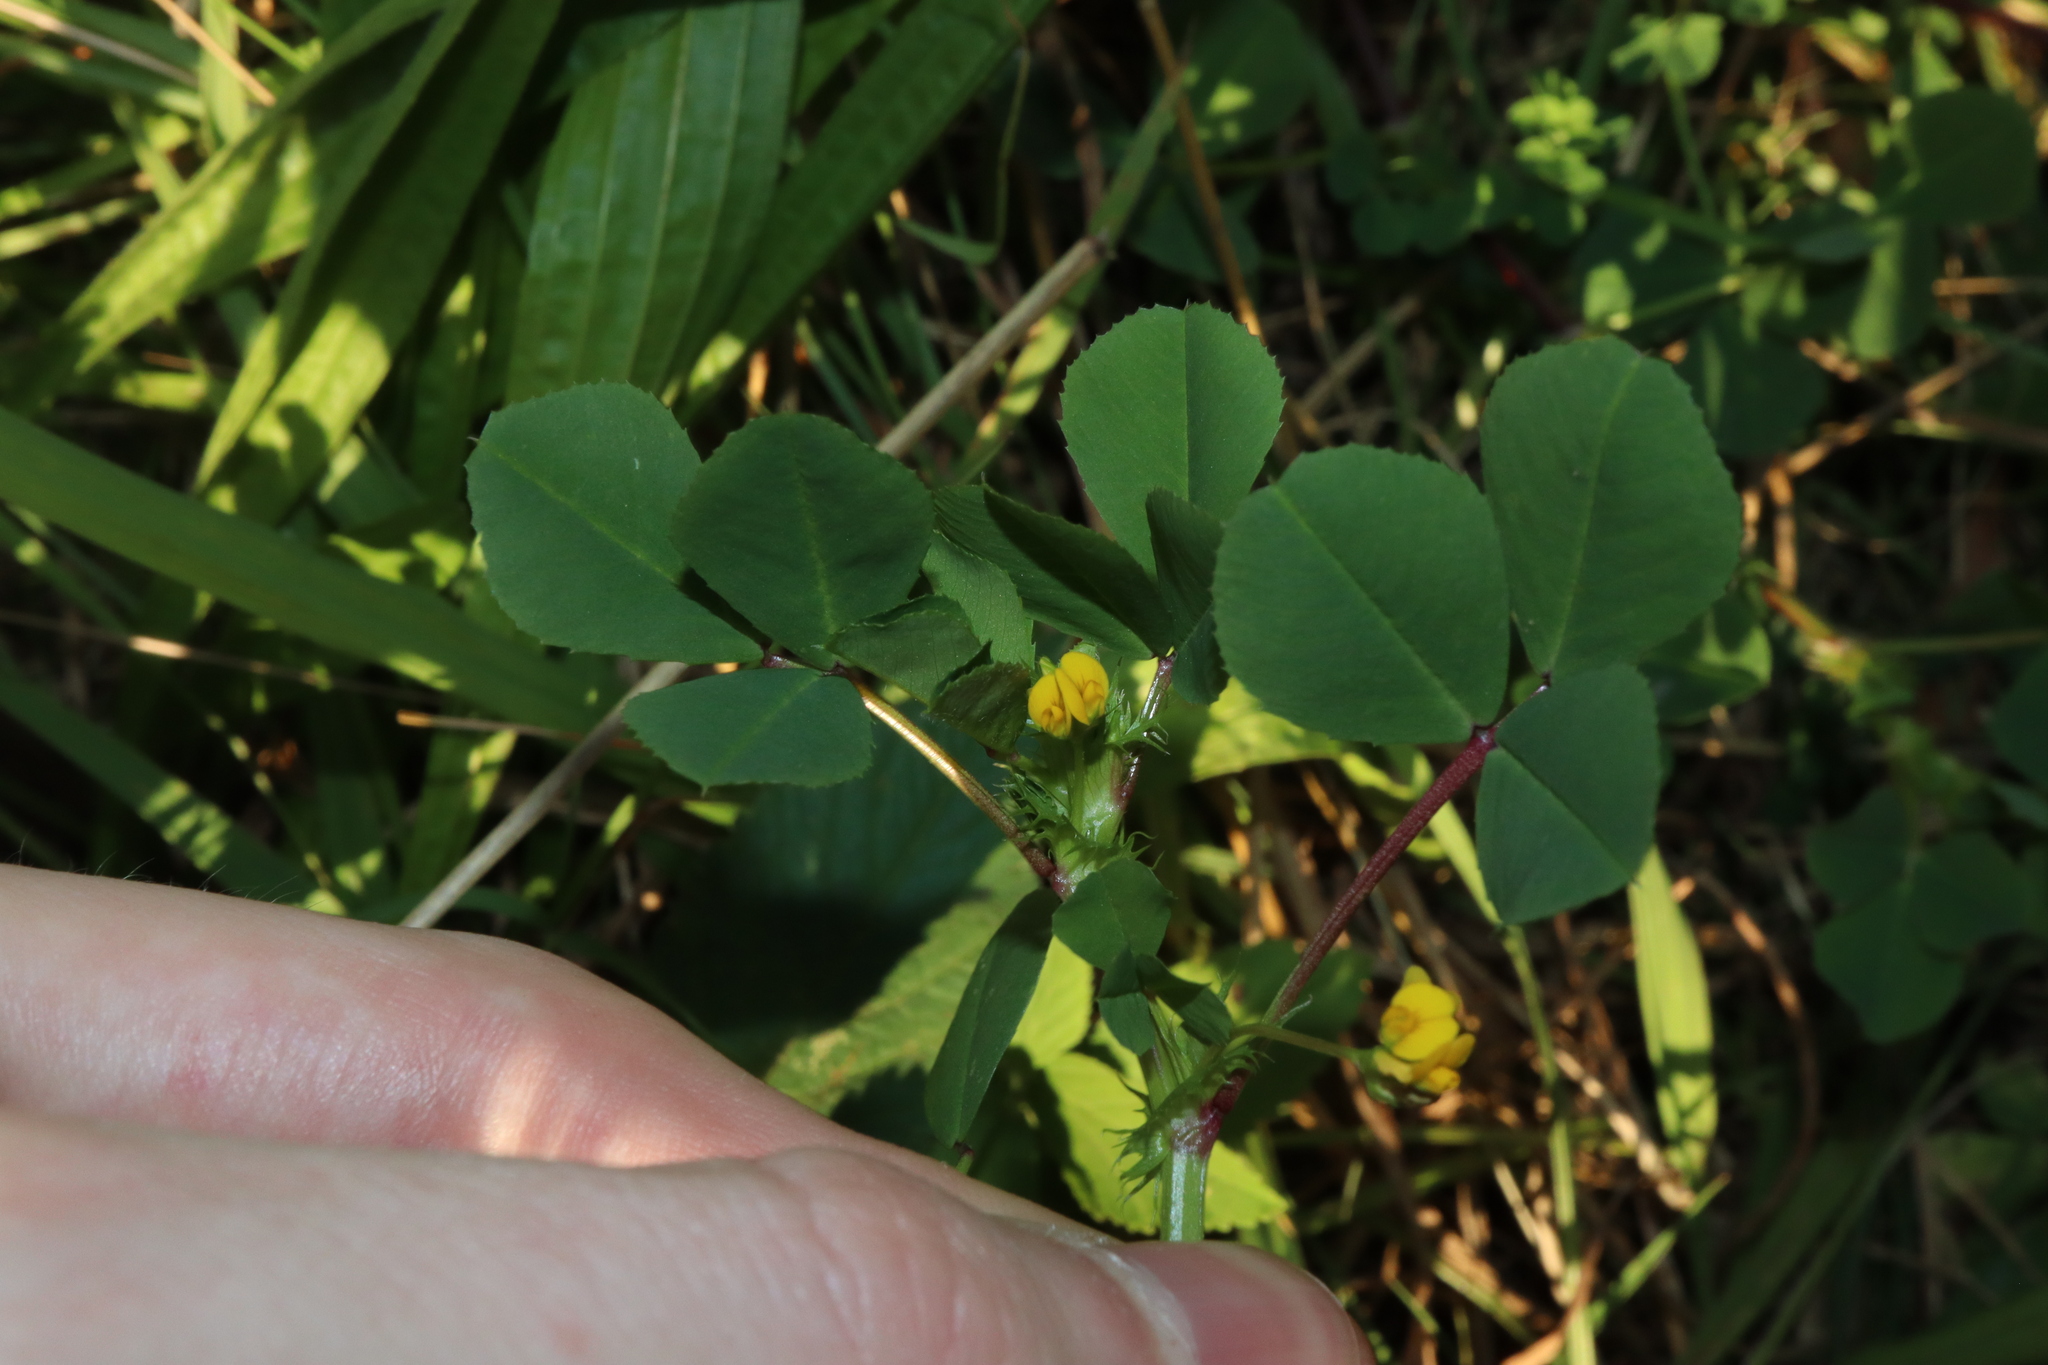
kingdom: Plantae
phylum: Tracheophyta
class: Magnoliopsida
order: Fabales
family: Fabaceae
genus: Medicago
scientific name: Medicago polymorpha
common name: Burclover
